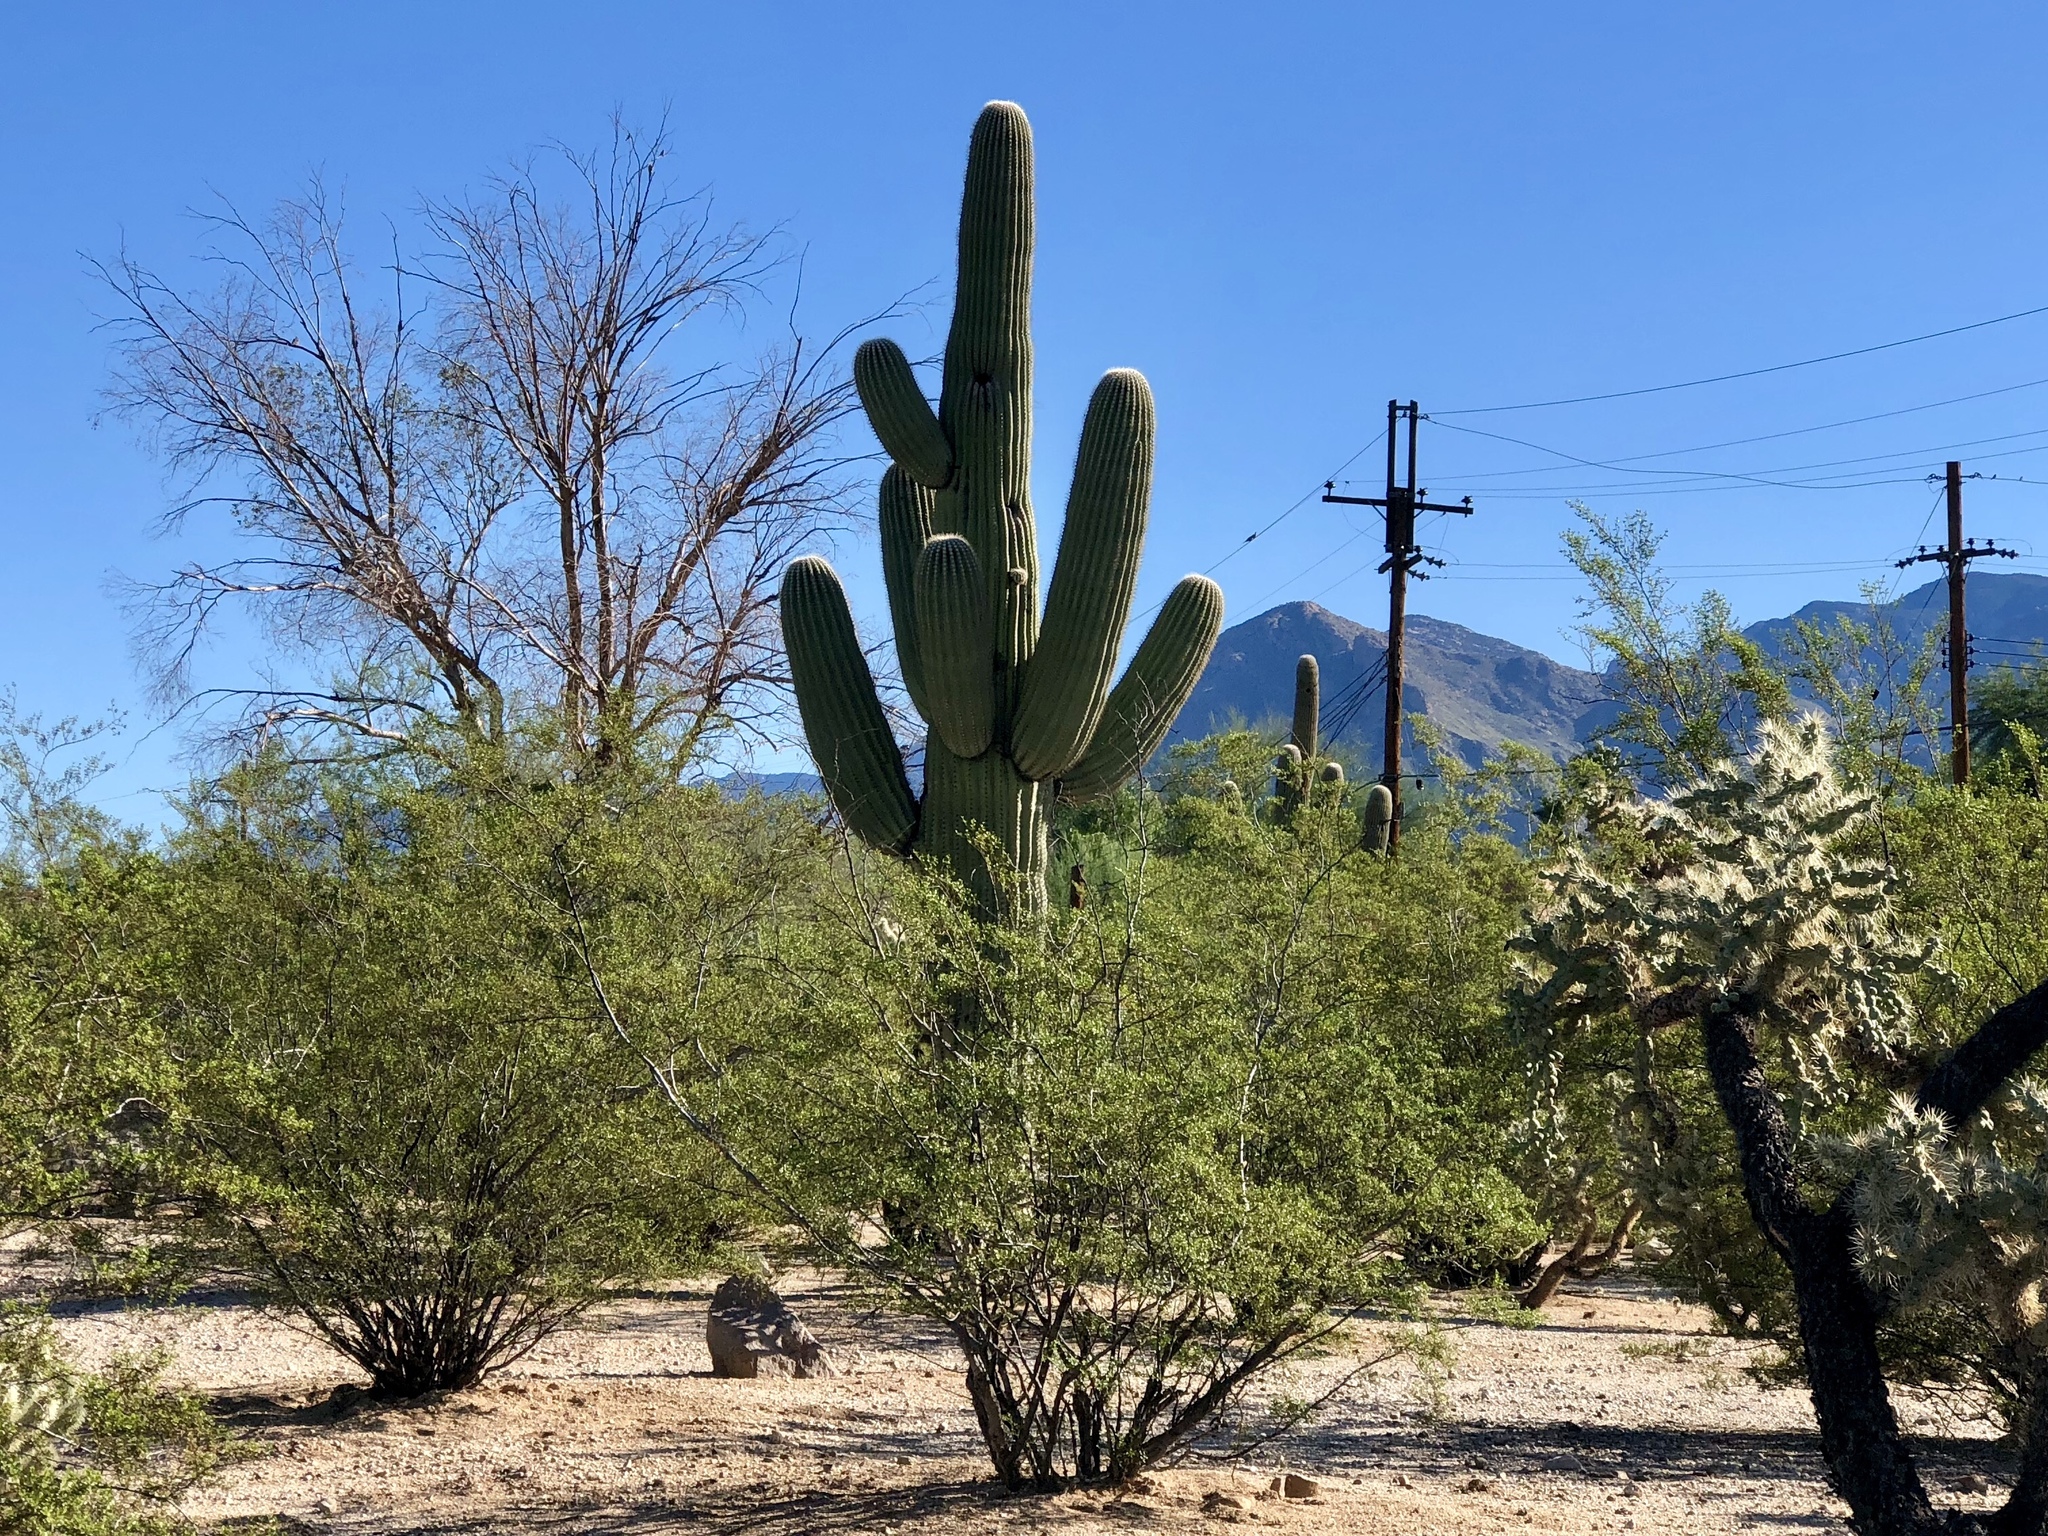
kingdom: Plantae
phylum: Tracheophyta
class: Magnoliopsida
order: Caryophyllales
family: Cactaceae
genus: Carnegiea
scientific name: Carnegiea gigantea
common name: Saguaro
